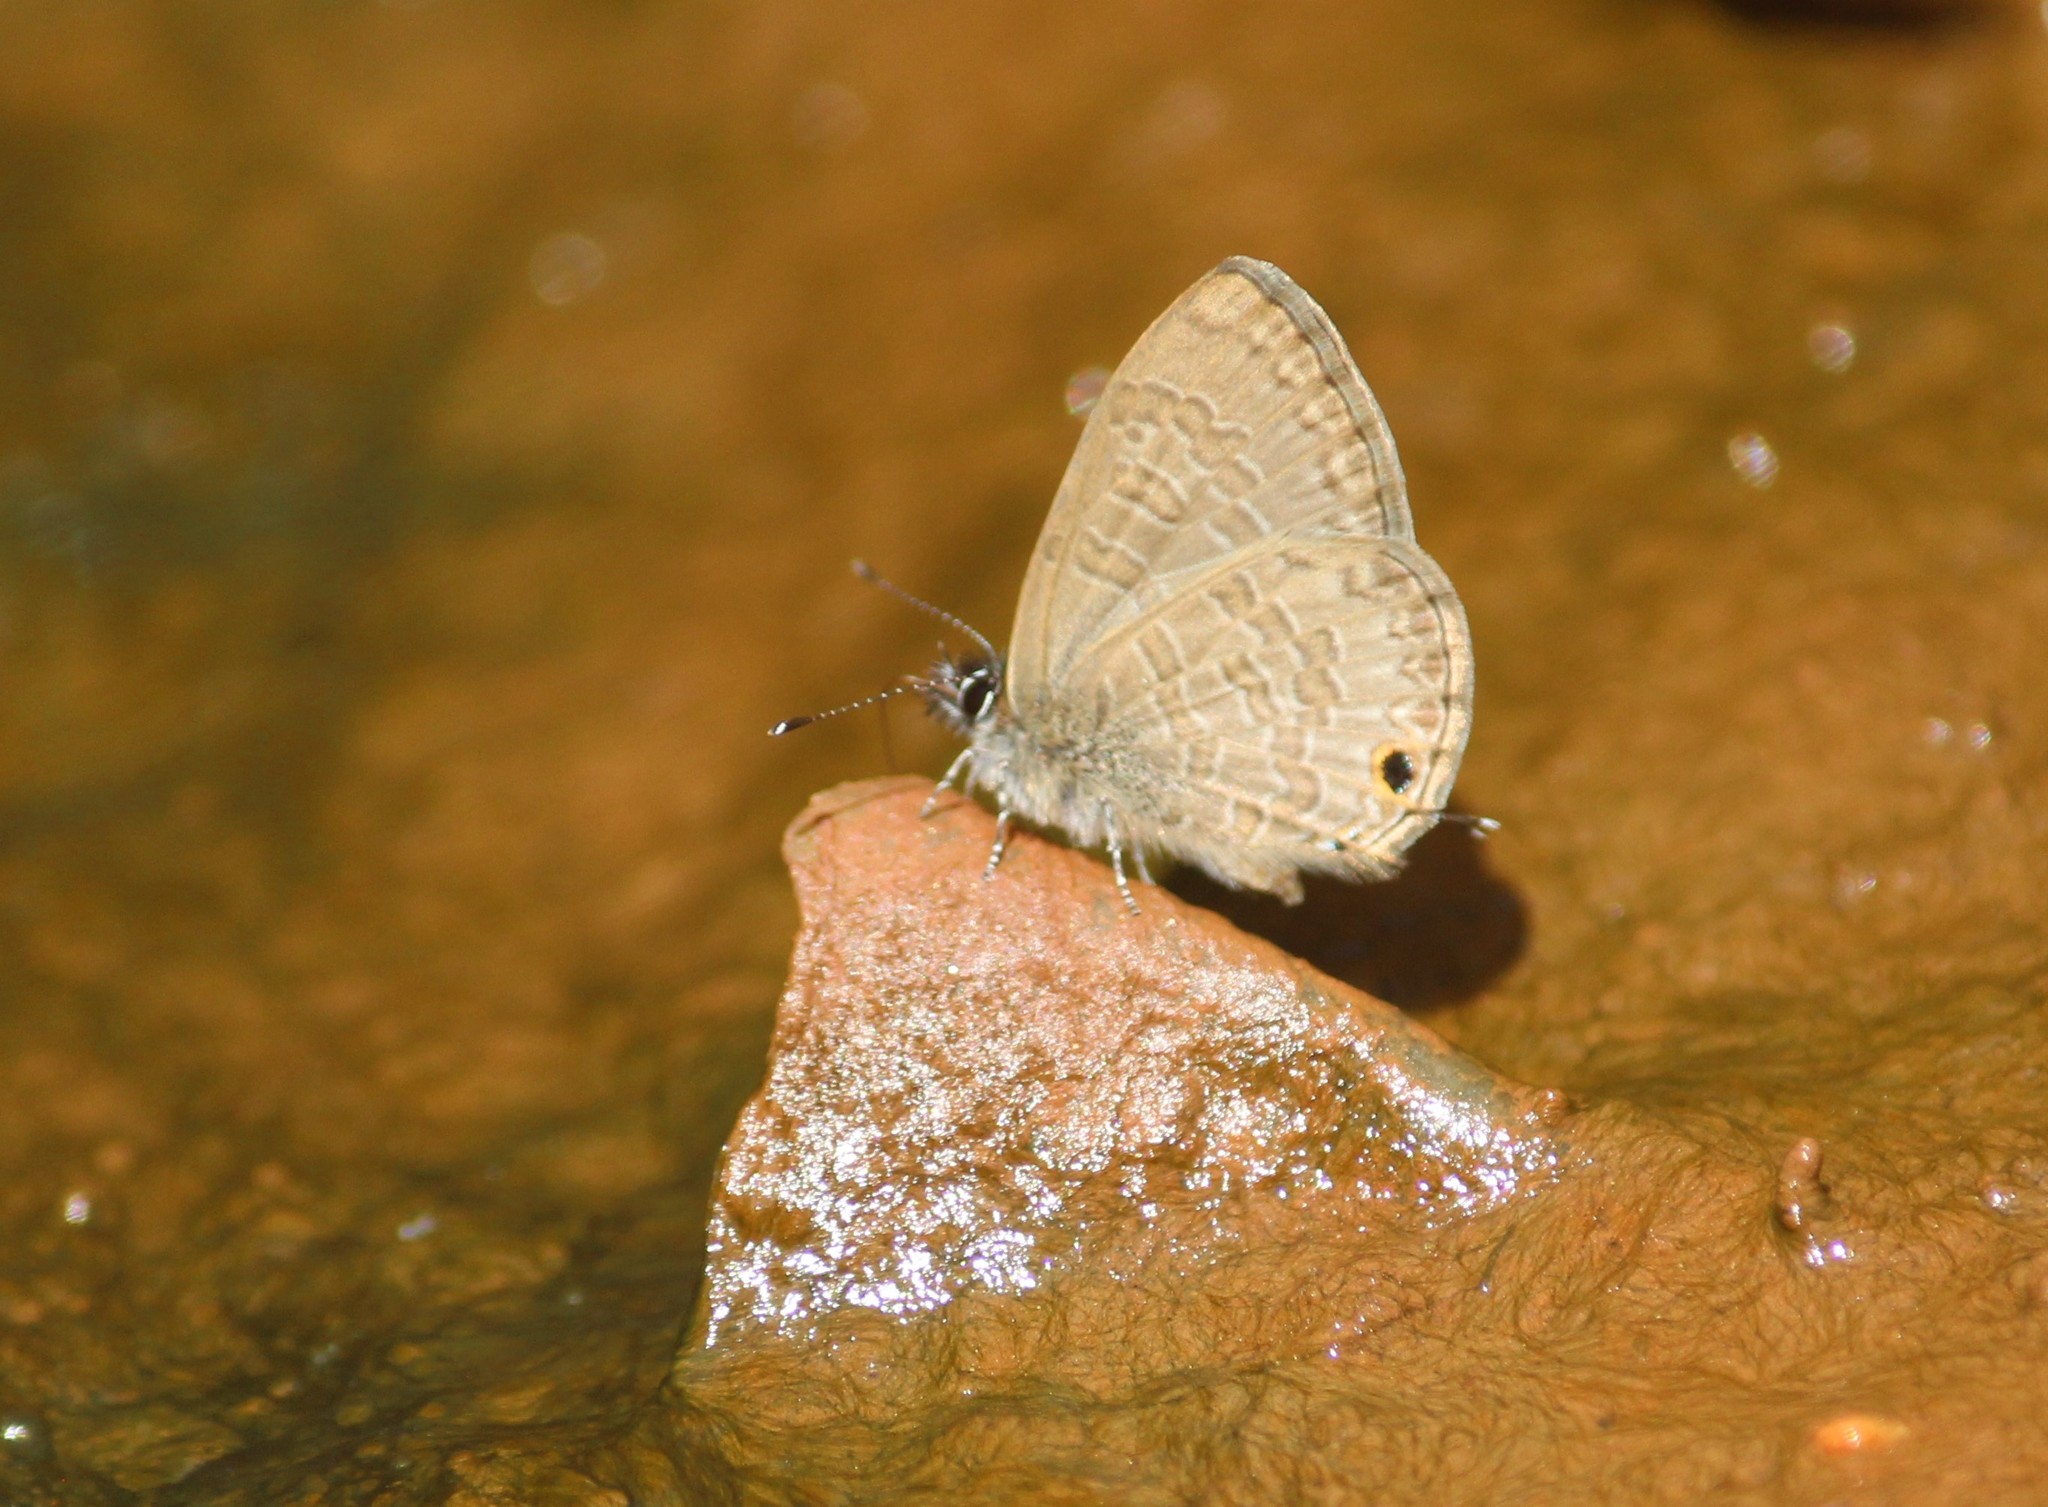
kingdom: Animalia
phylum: Arthropoda
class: Insecta
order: Lepidoptera
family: Lycaenidae
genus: Prosotas
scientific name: Prosotas nora
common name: Common line blue
